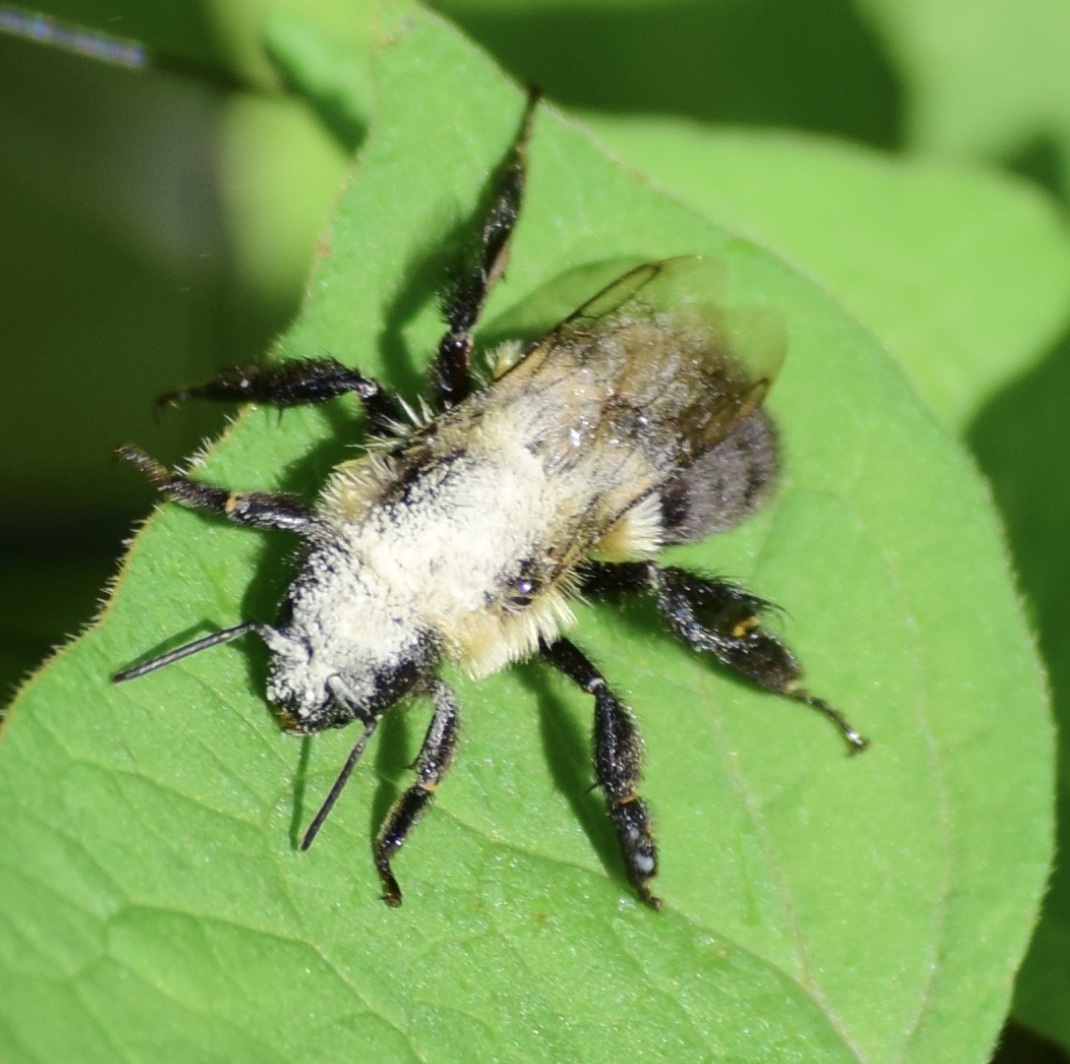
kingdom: Animalia
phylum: Arthropoda
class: Insecta
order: Hymenoptera
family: Apidae
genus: Bombus
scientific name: Bombus impatiens
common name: Common eastern bumble bee
